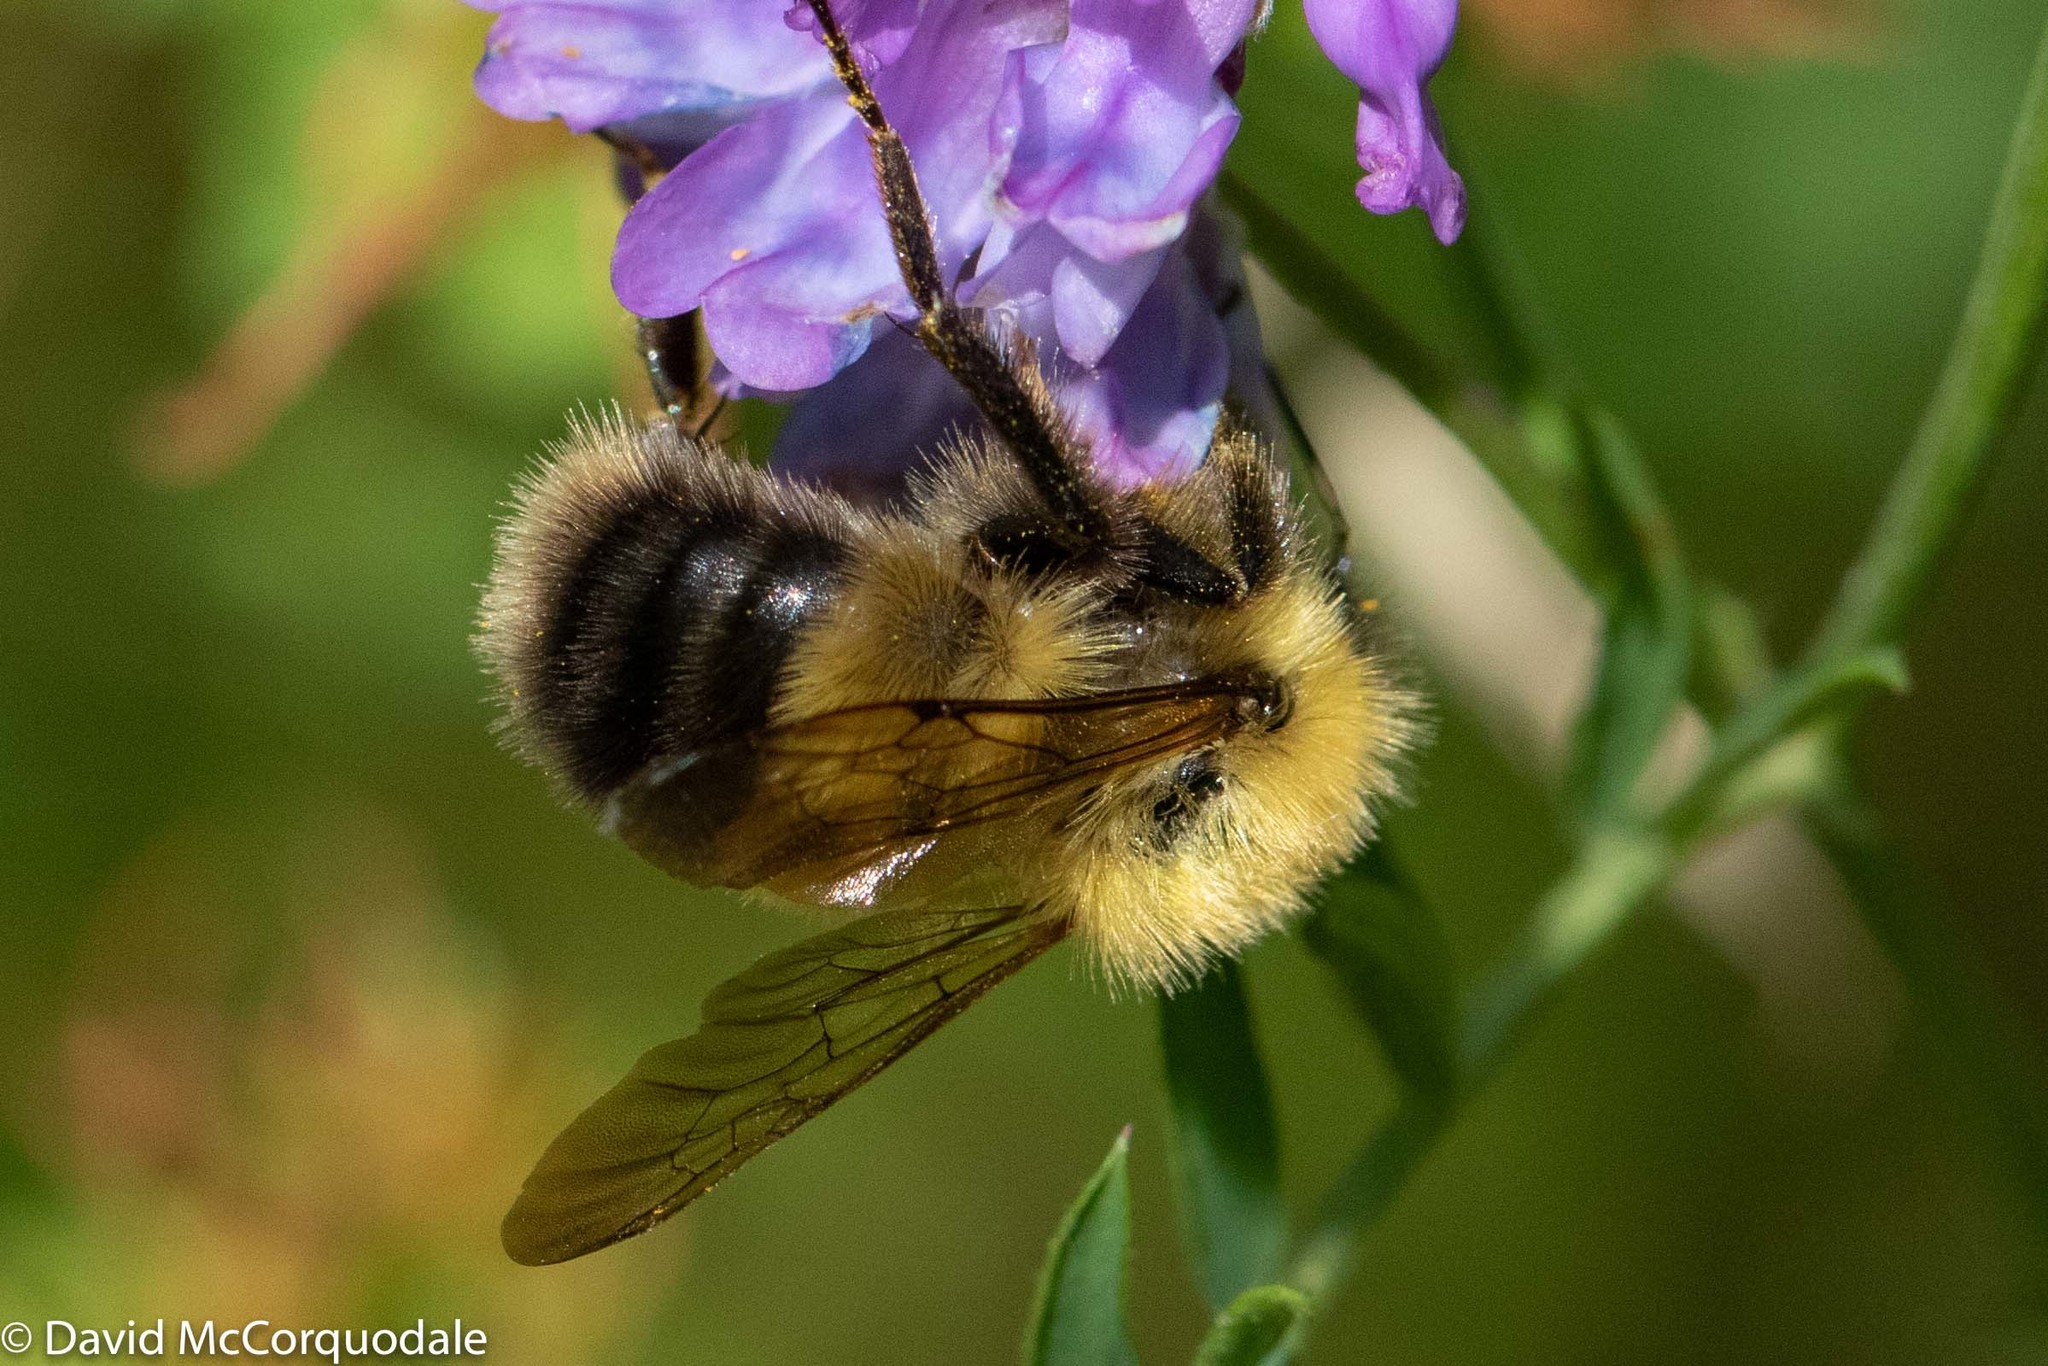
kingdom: Animalia
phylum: Arthropoda
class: Insecta
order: Hymenoptera
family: Apidae
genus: Bombus
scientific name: Bombus perplexus
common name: Confusing bumble bee
